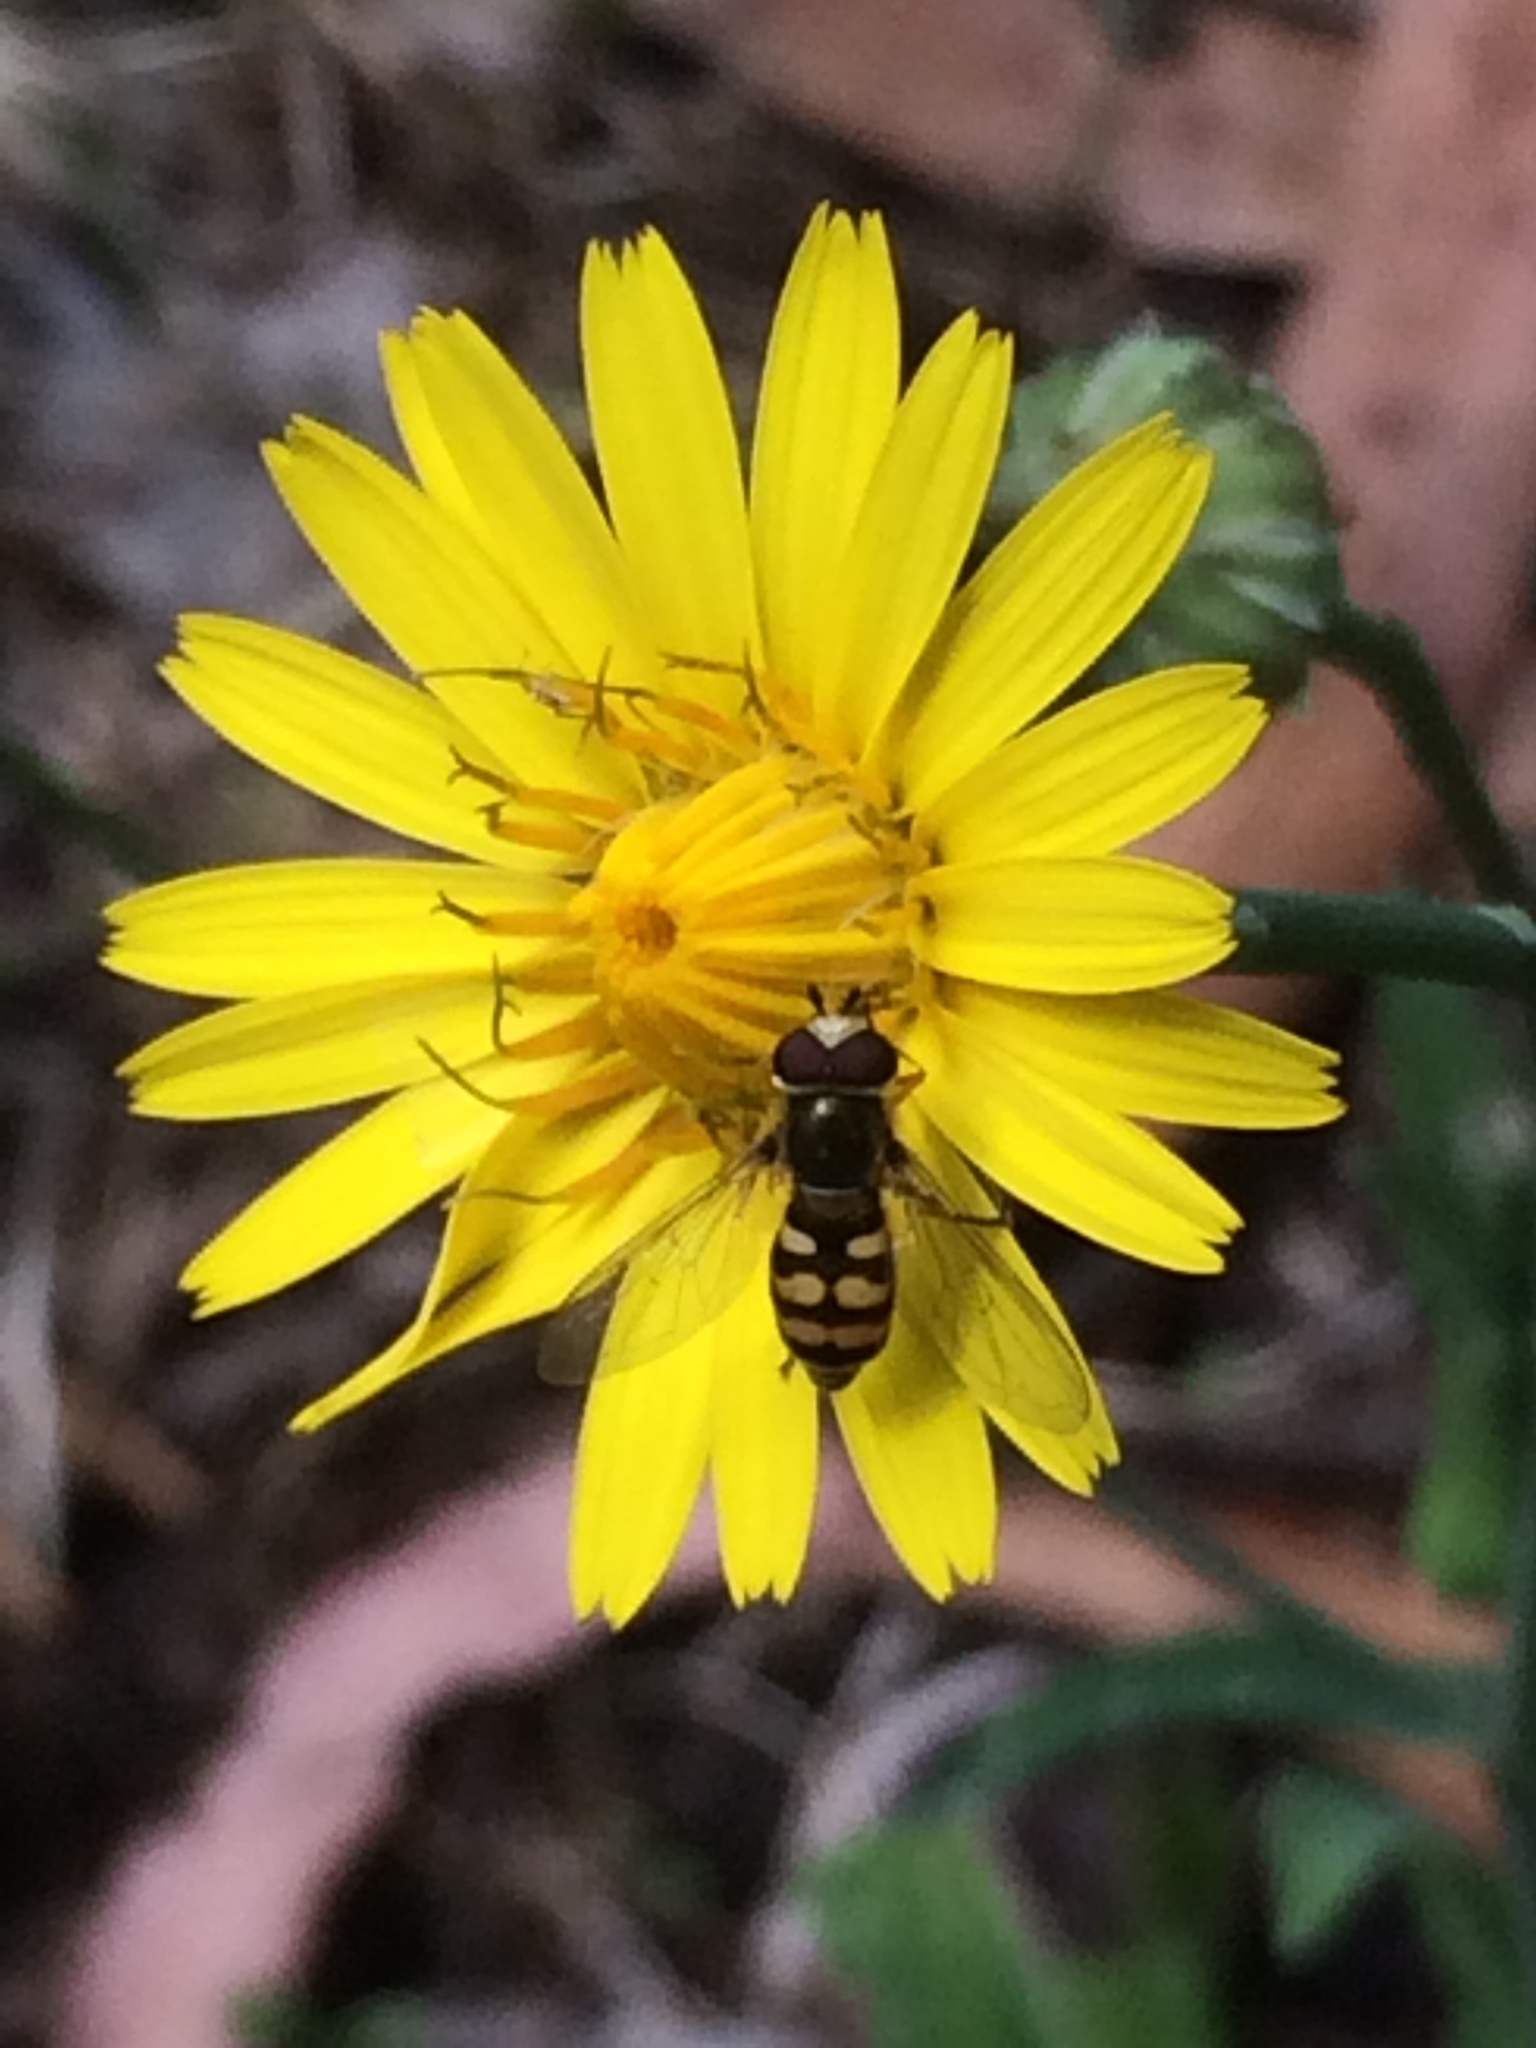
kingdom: Animalia
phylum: Arthropoda
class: Insecta
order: Diptera
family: Syrphidae
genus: Eupeodes
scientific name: Eupeodes corollae
